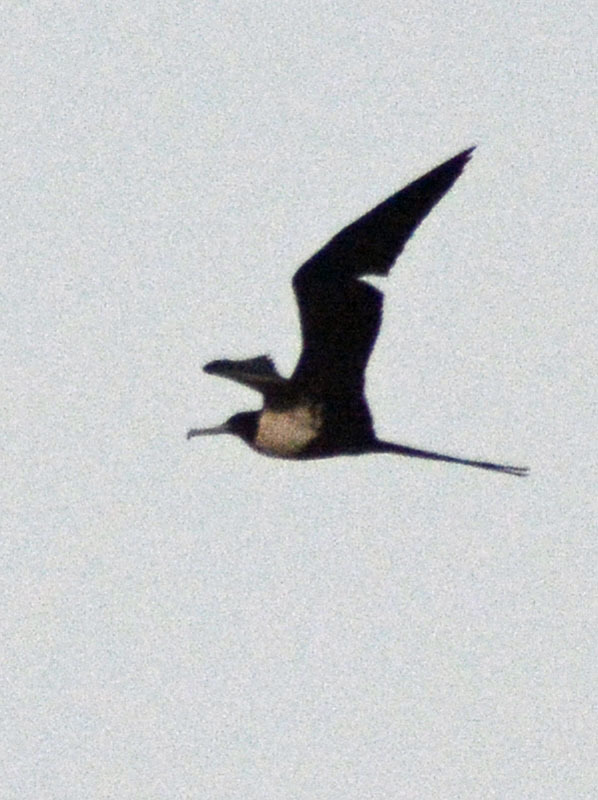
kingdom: Animalia
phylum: Chordata
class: Aves
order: Suliformes
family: Fregatidae
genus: Fregata
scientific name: Fregata magnificens
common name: Magnificent frigatebird
